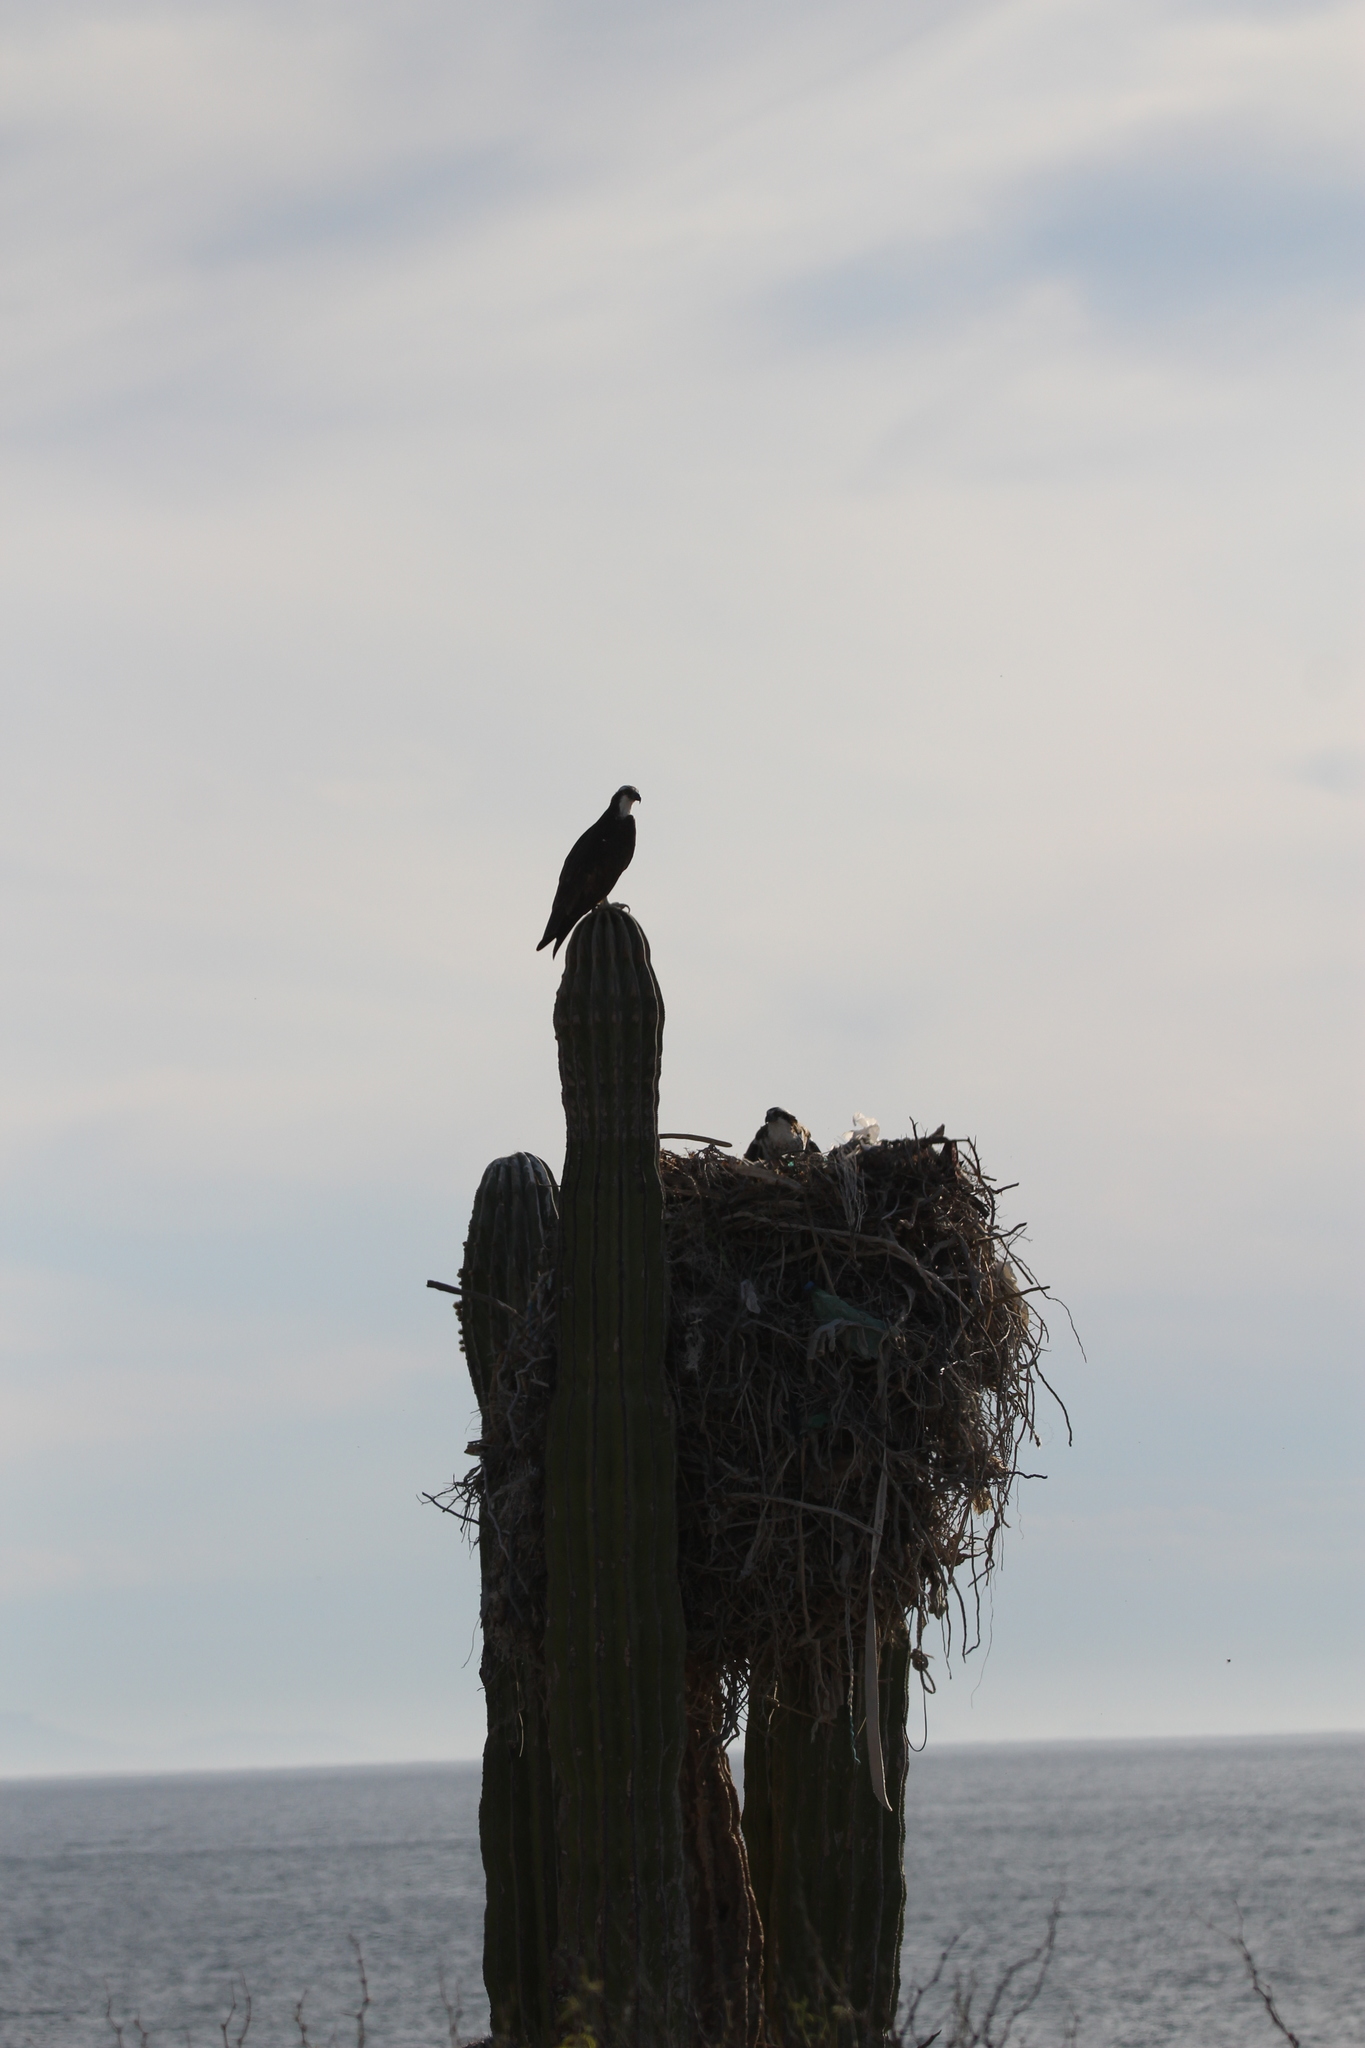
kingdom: Animalia
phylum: Chordata
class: Aves
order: Accipitriformes
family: Pandionidae
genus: Pandion
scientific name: Pandion haliaetus
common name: Osprey
